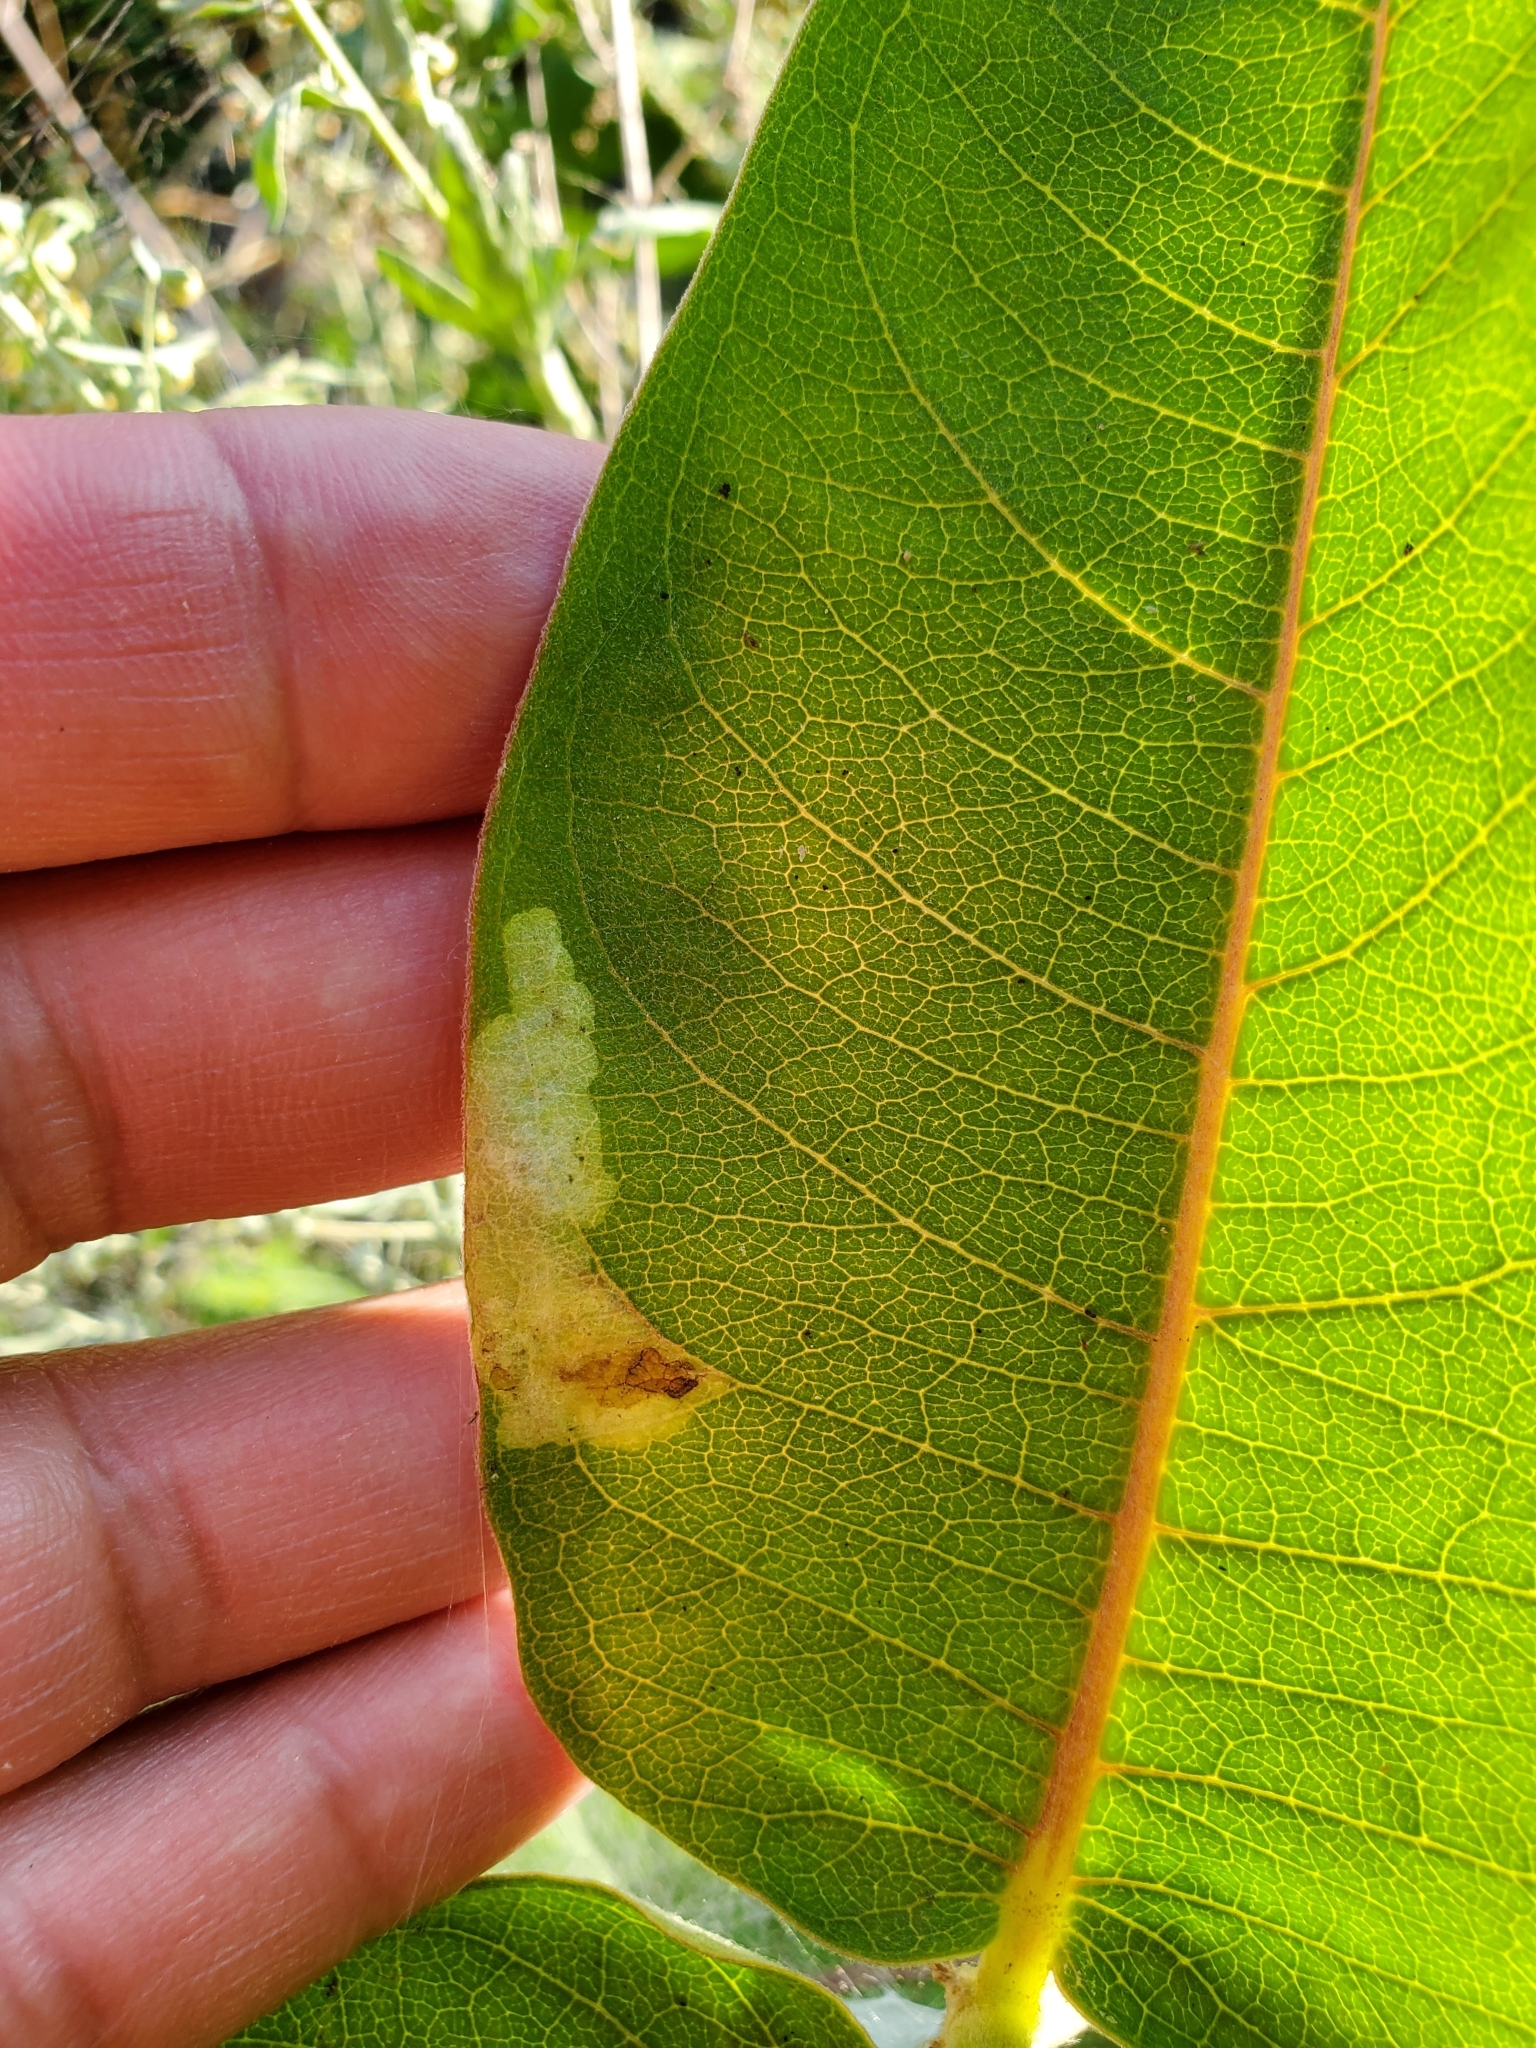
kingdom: Animalia
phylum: Arthropoda
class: Insecta
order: Diptera
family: Agromyzidae
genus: Liriomyza
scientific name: Liriomyza asclepiadis
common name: Milkweed leaf-miner fly
